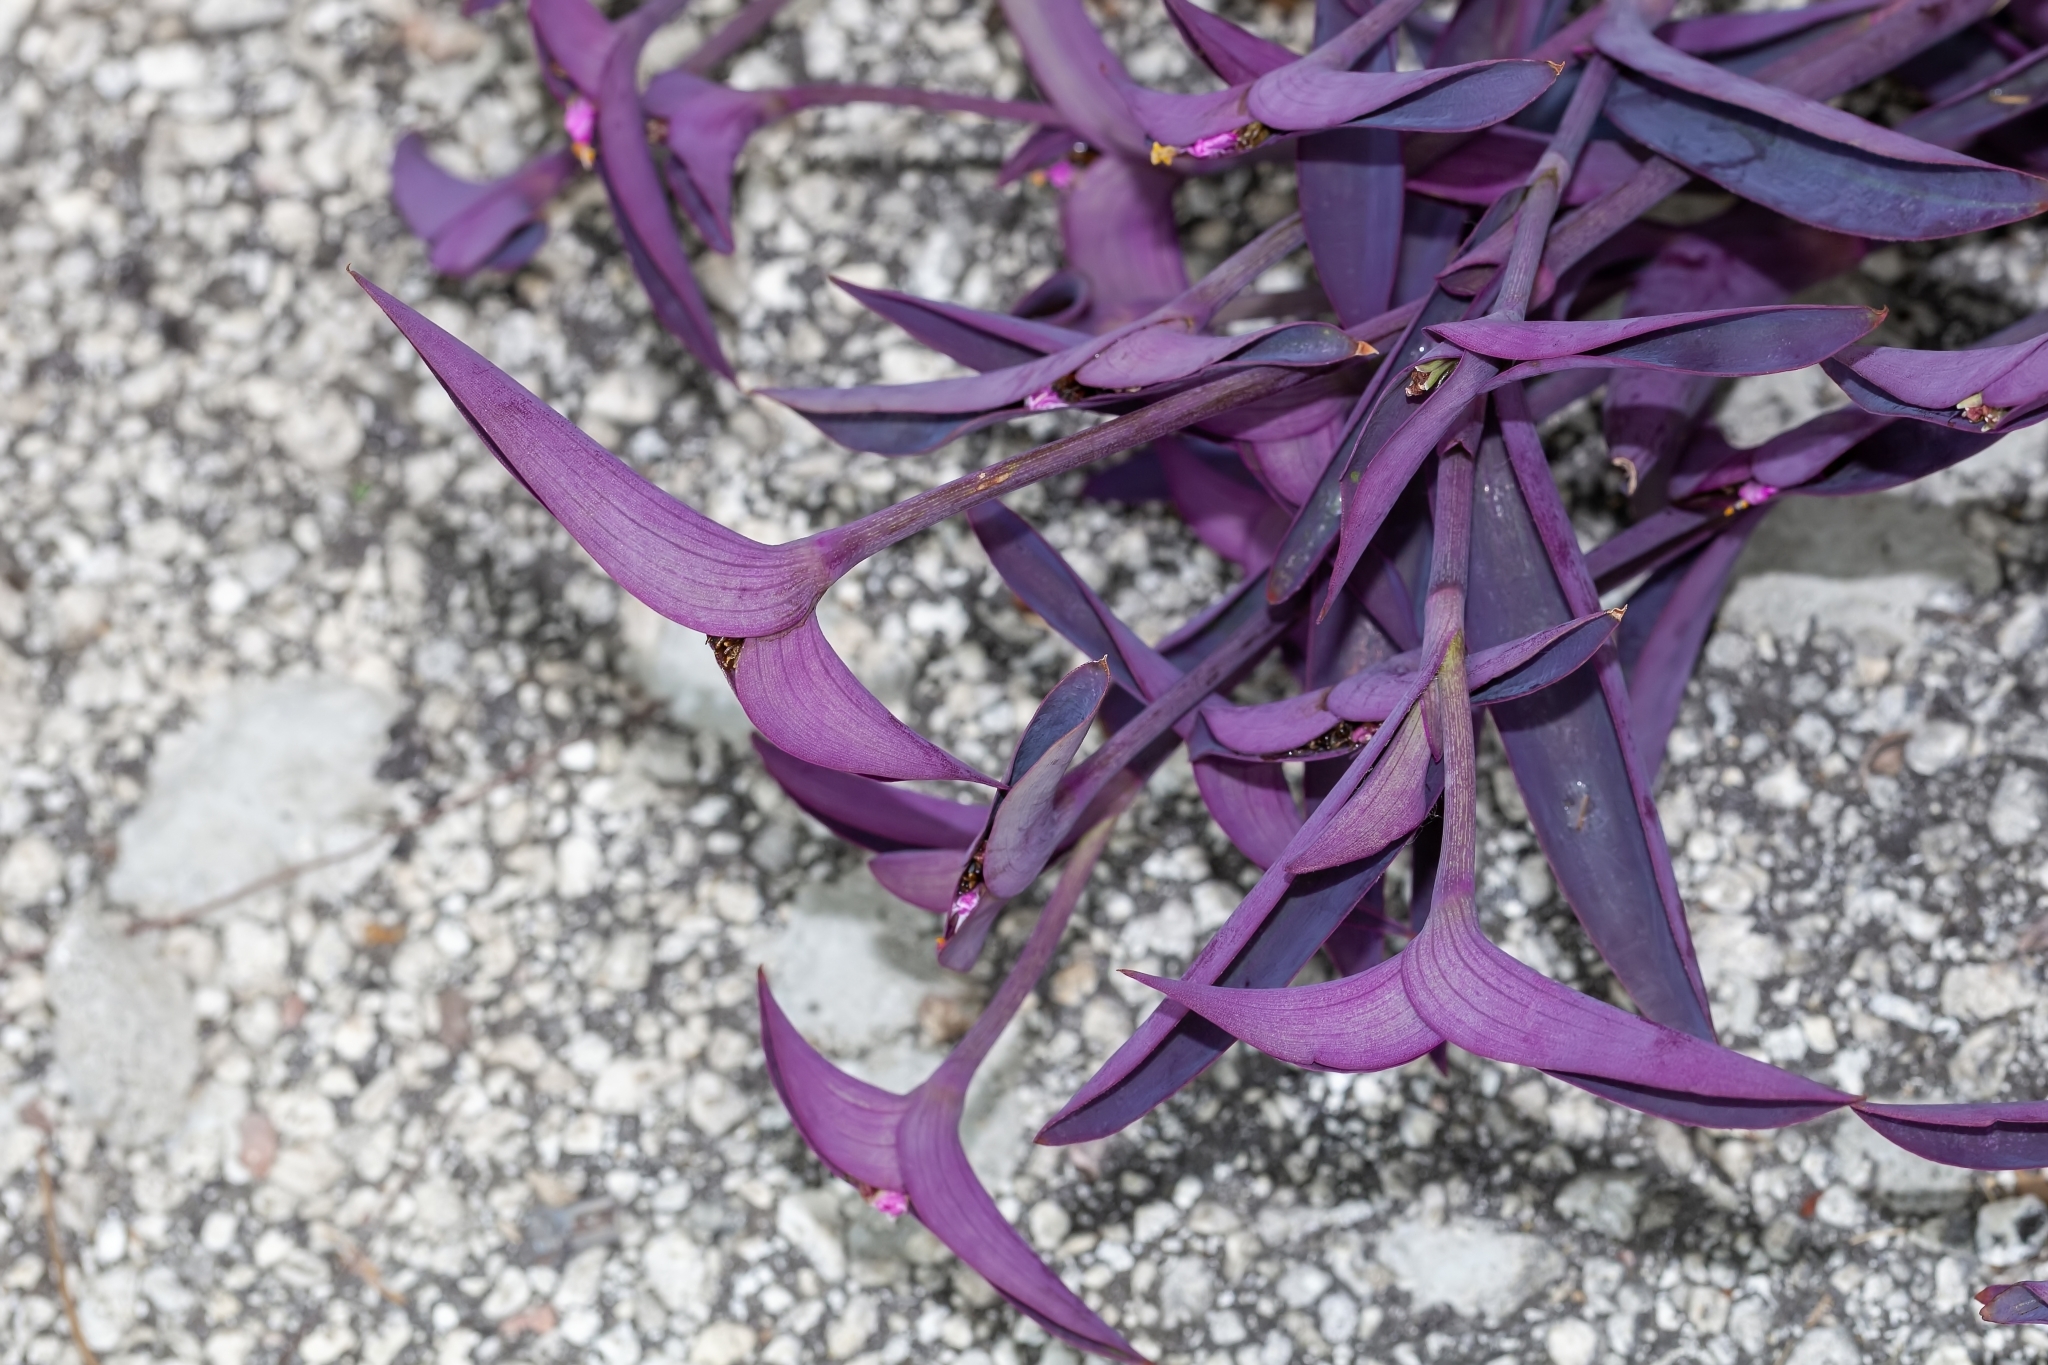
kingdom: Plantae
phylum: Tracheophyta
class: Liliopsida
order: Commelinales
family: Commelinaceae
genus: Tradescantia
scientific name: Tradescantia pallida
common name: Purpleheart
